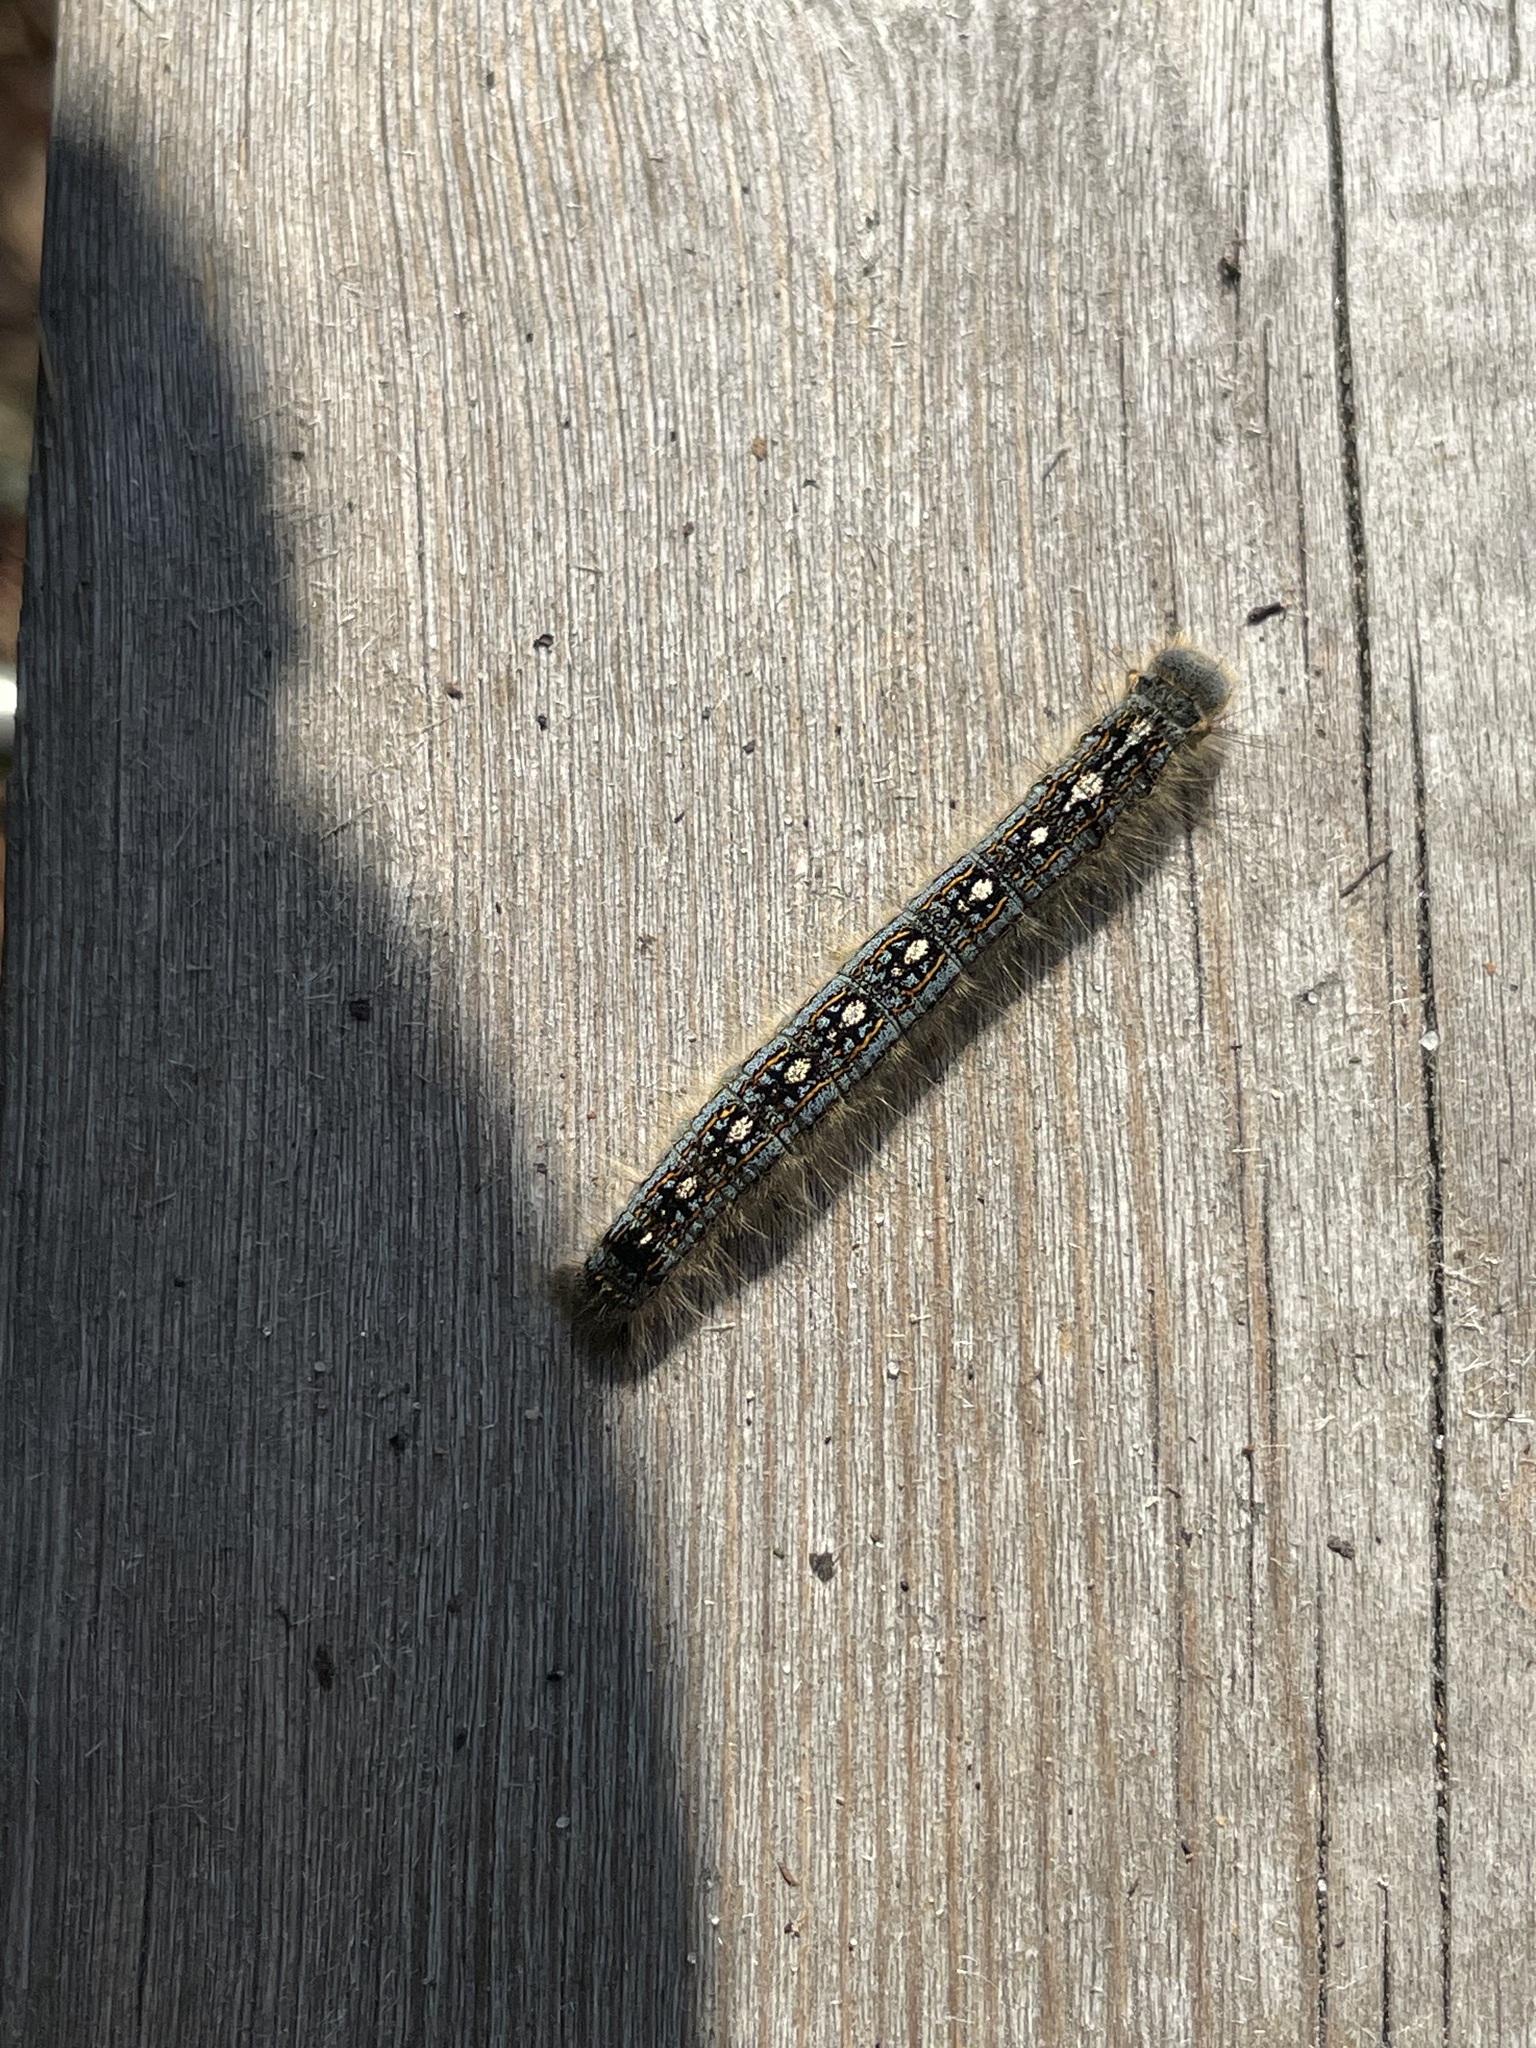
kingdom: Animalia
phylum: Arthropoda
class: Insecta
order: Lepidoptera
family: Lasiocampidae
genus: Malacosoma
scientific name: Malacosoma disstria
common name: Forest tent caterpillar
